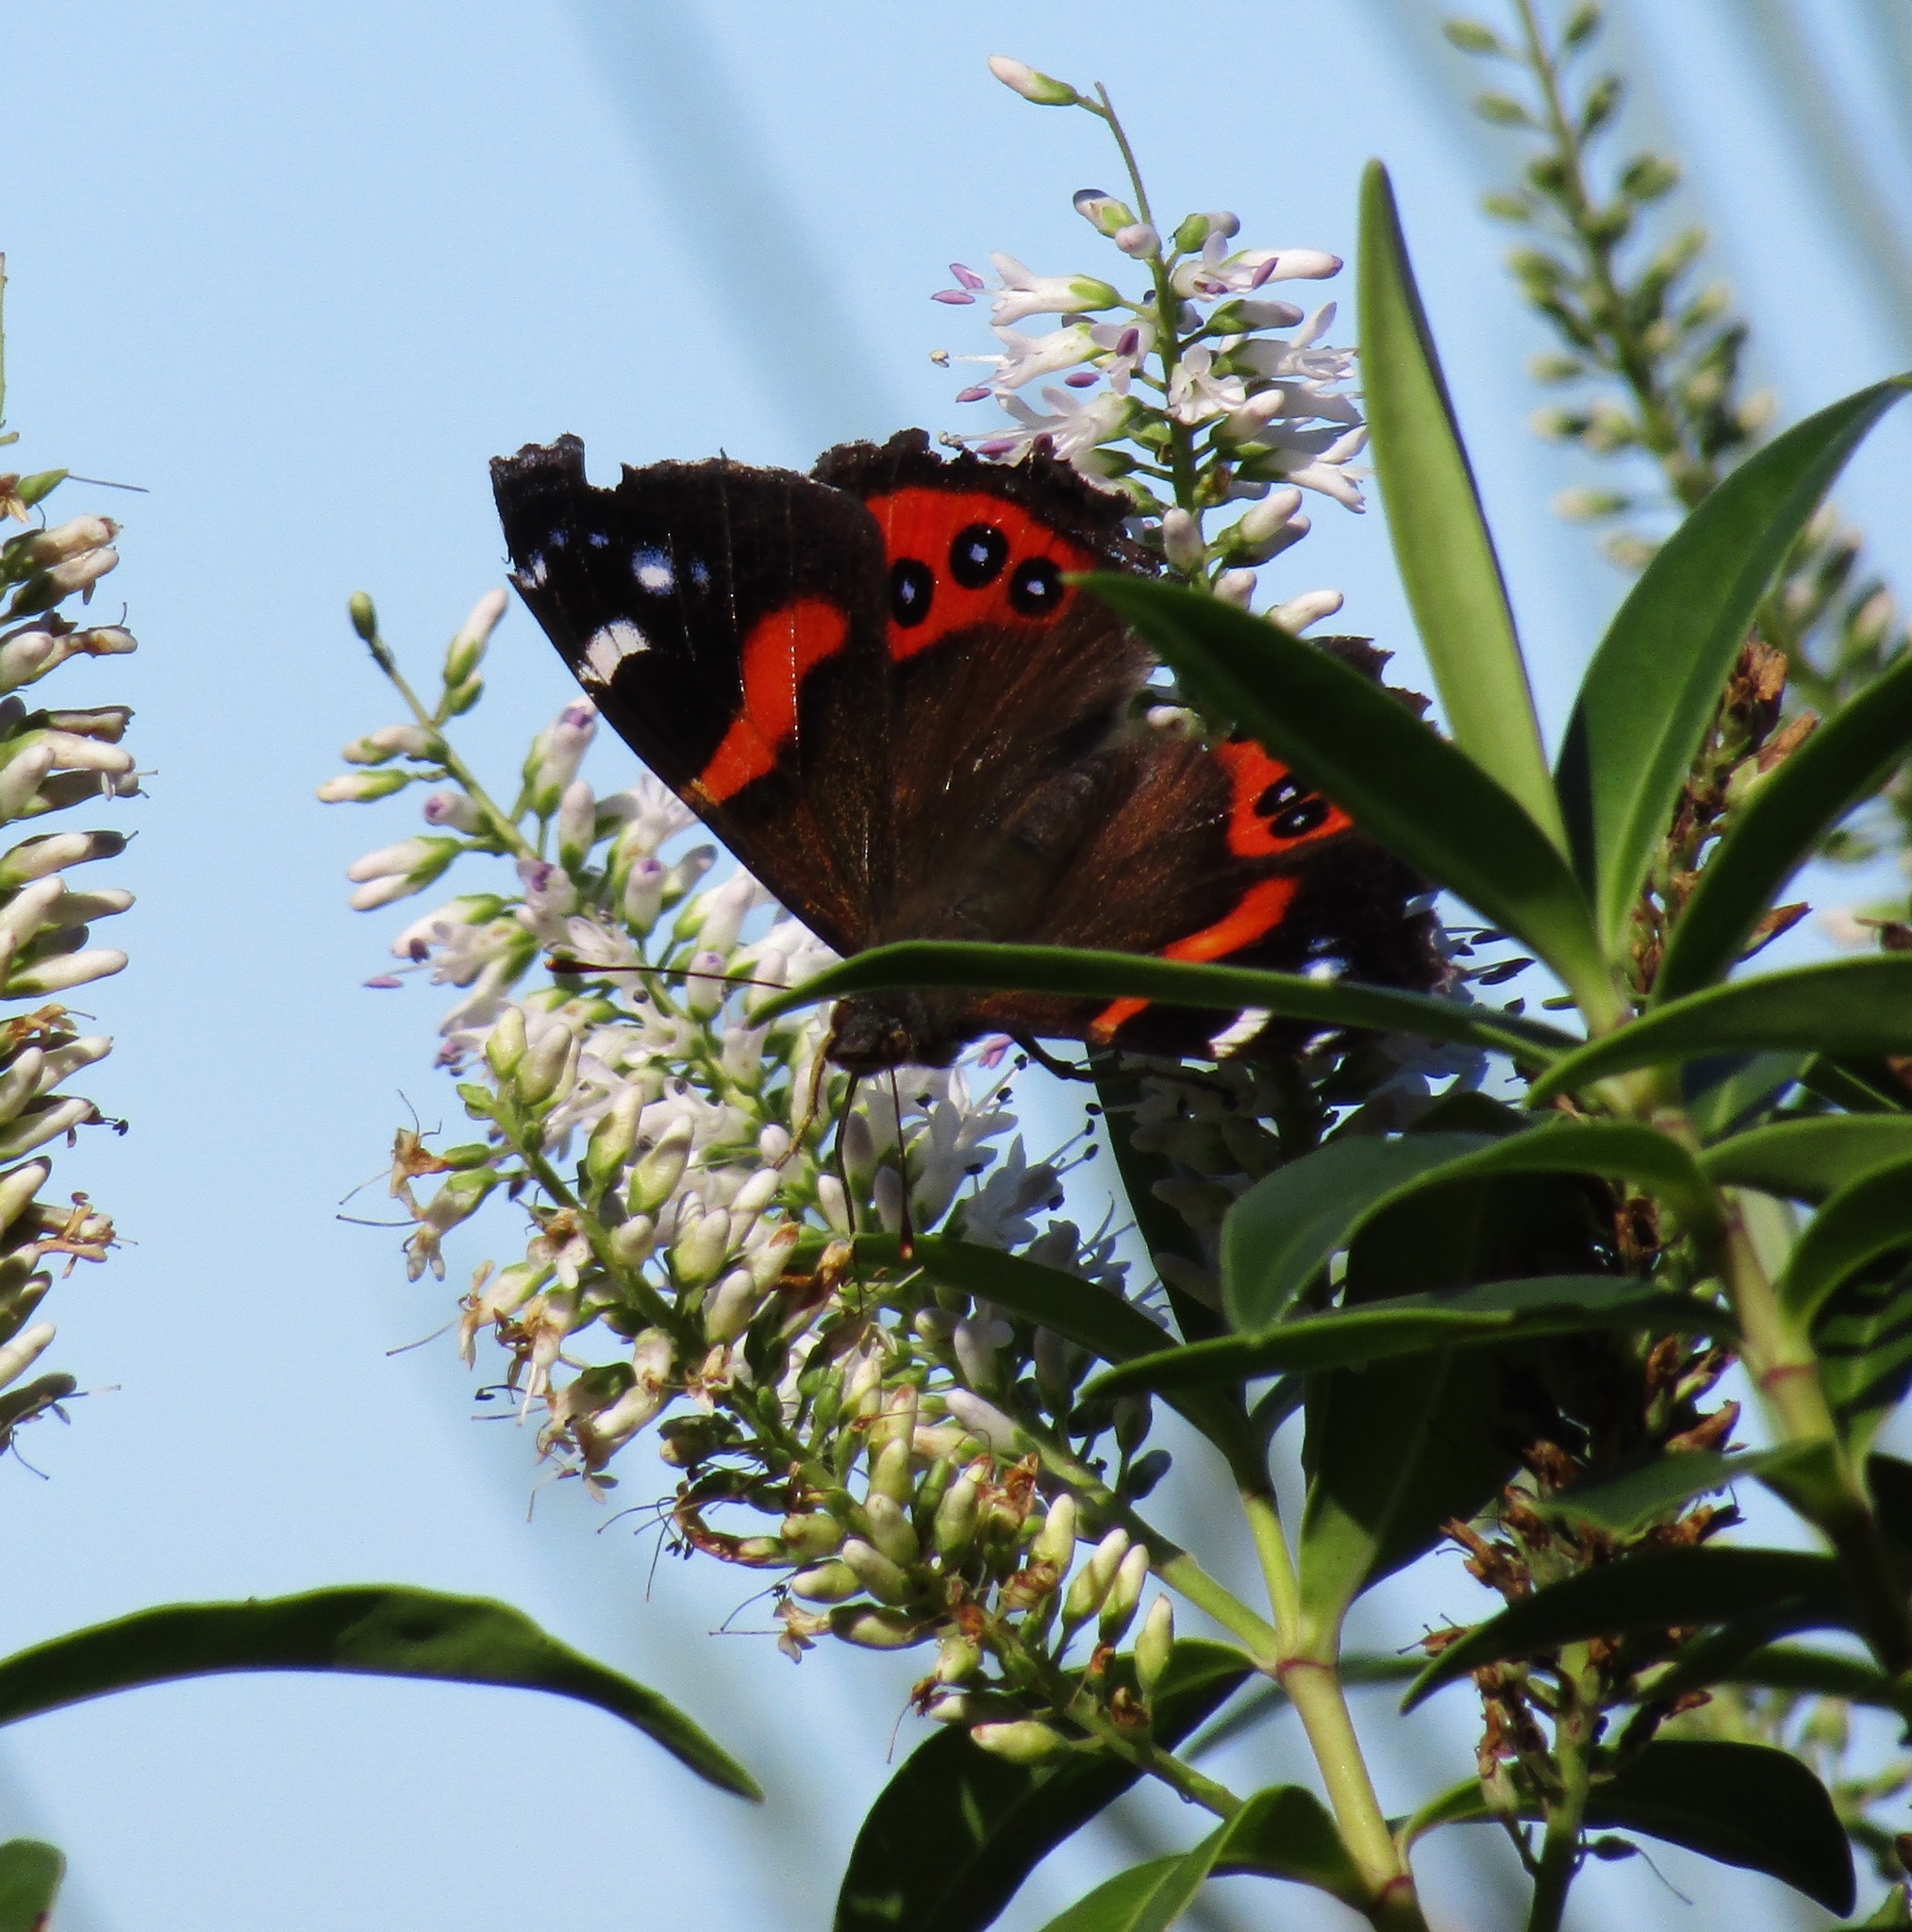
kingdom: Animalia
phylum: Arthropoda
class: Insecta
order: Lepidoptera
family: Nymphalidae
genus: Vanessa
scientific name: Vanessa gonerilla
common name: New zealand red admiral
